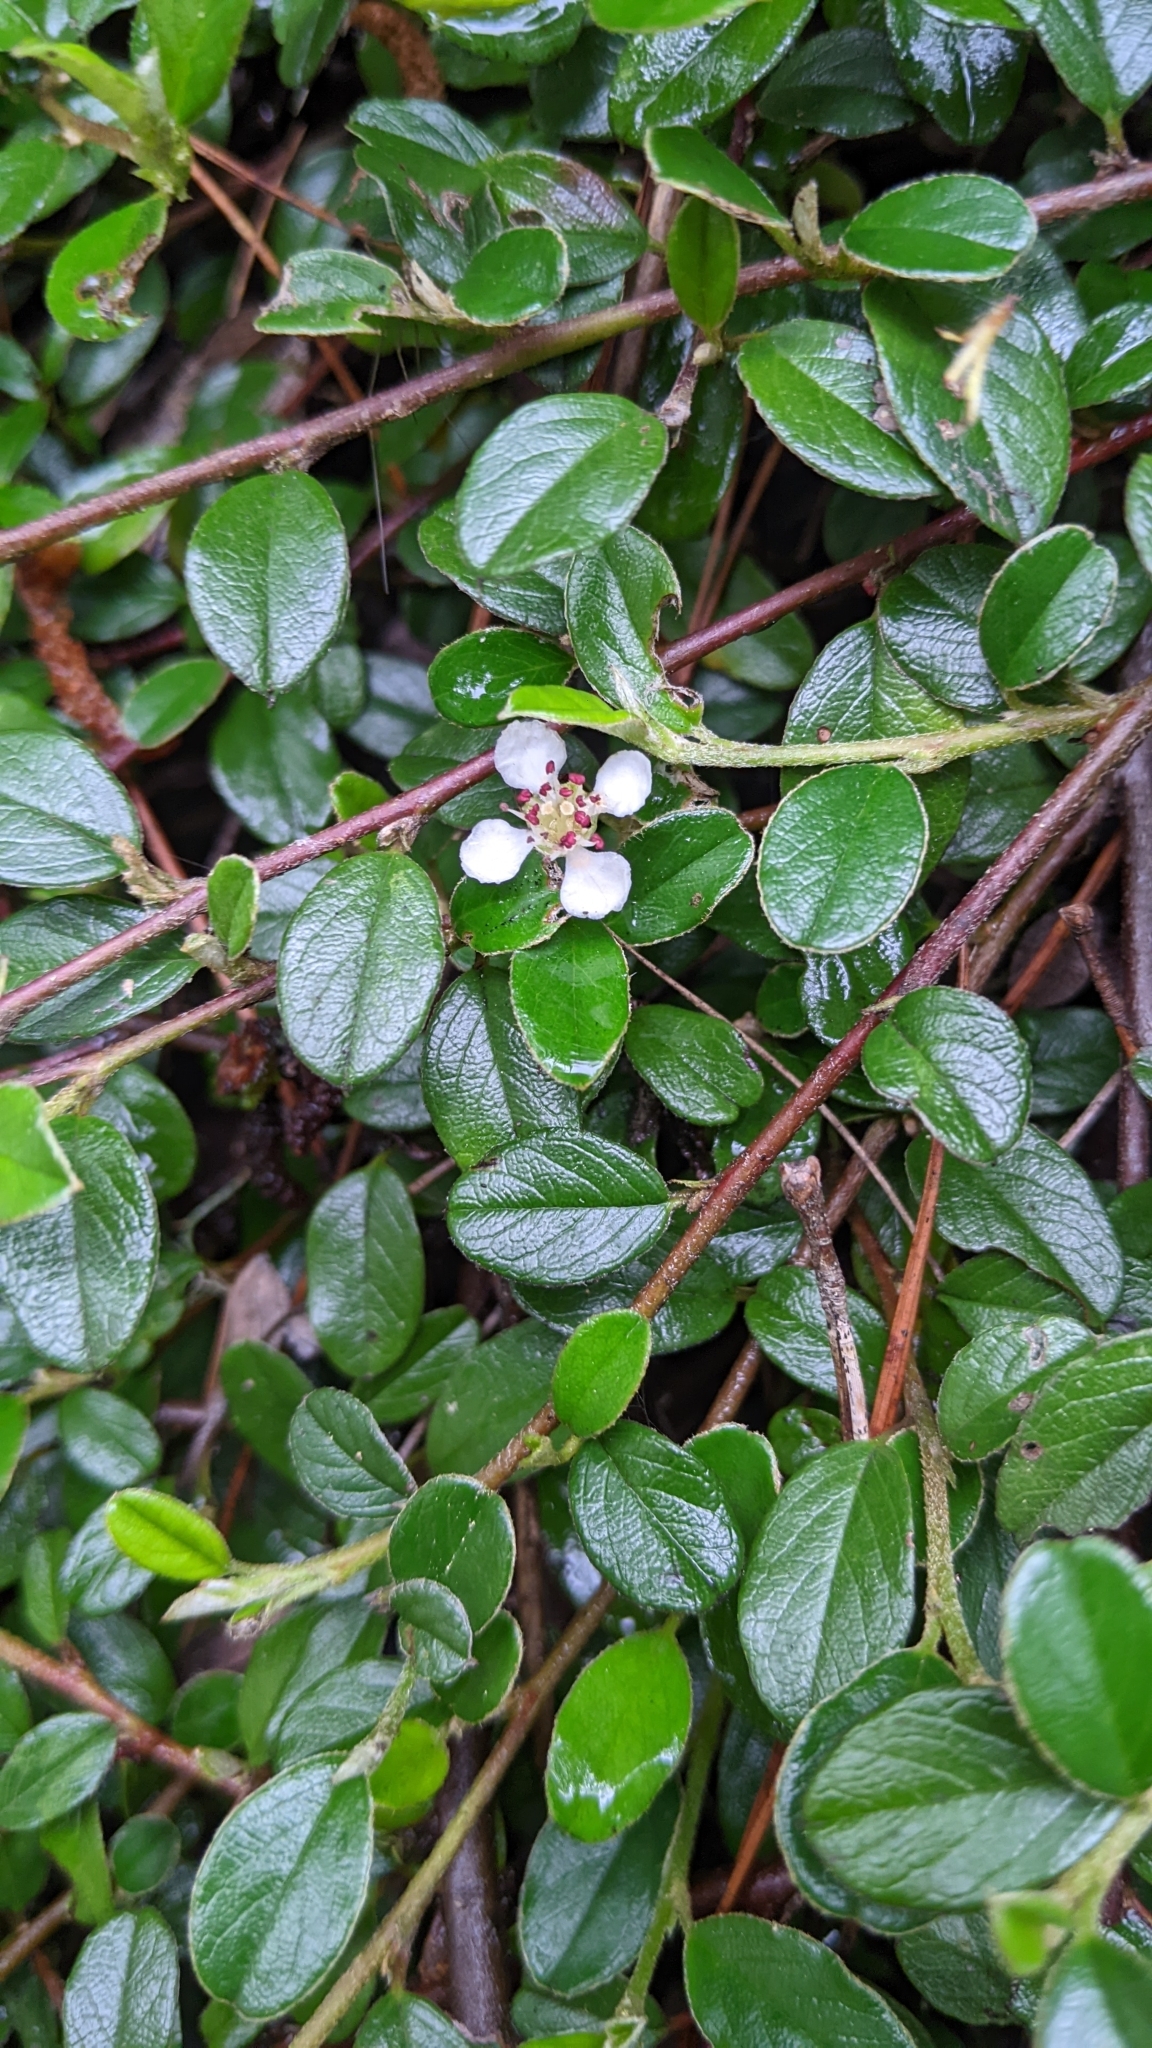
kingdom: Plantae
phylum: Tracheophyta
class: Magnoliopsida
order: Rosales
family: Rosaceae
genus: Cotoneaster
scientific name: Cotoneaster morrisonensis
